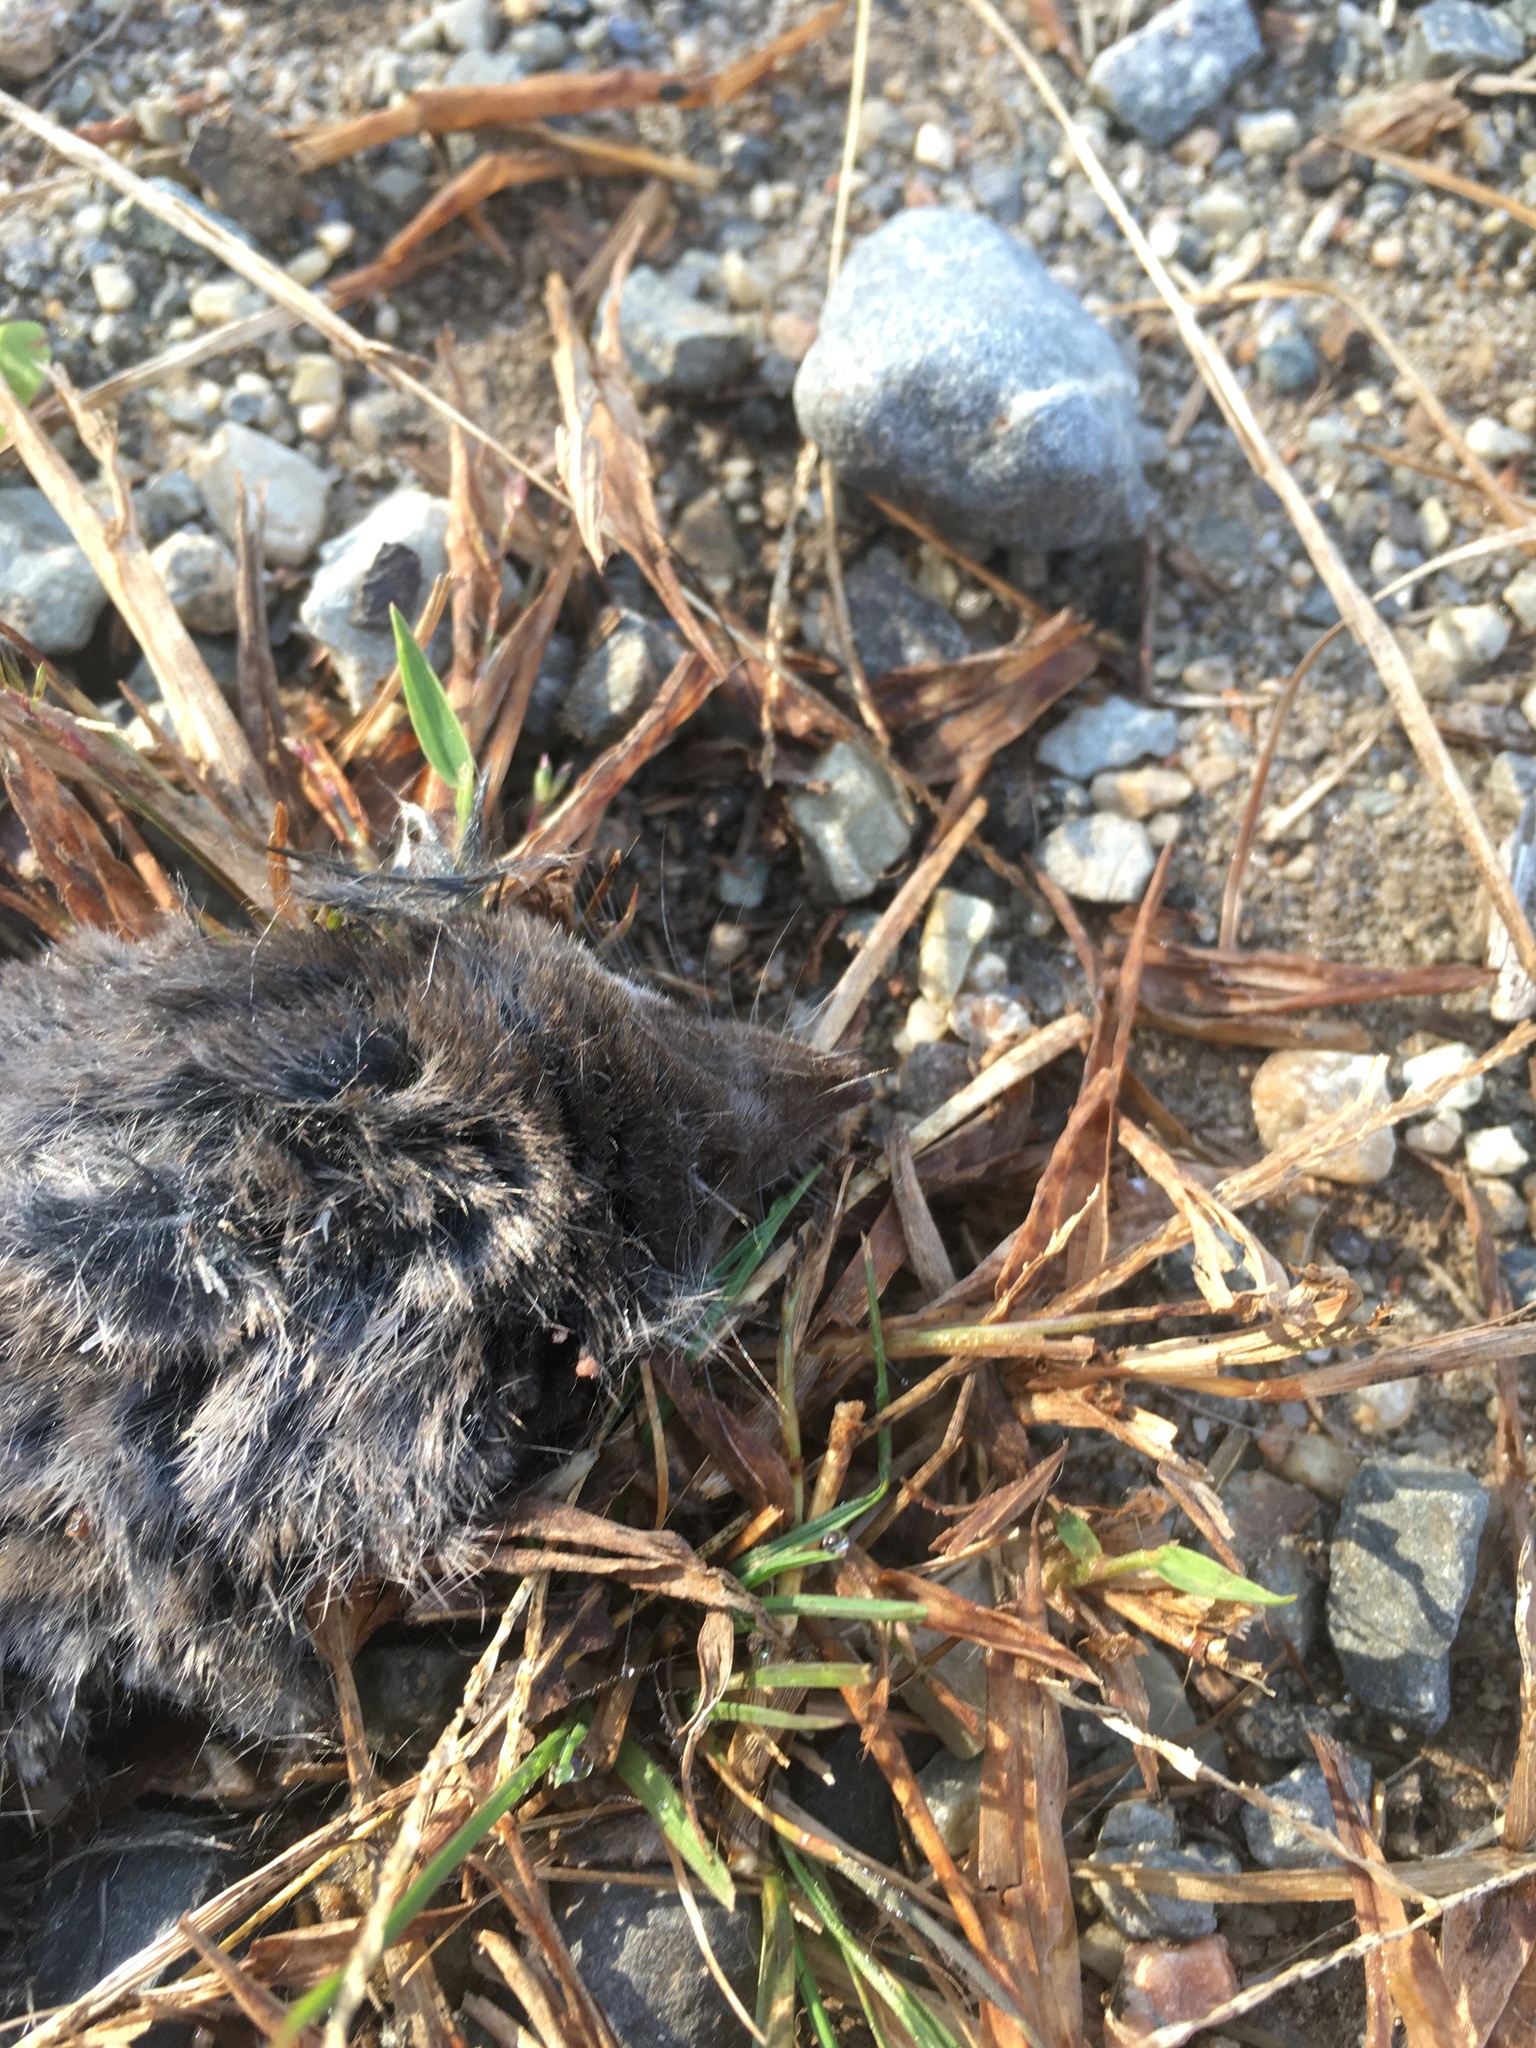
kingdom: Animalia
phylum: Chordata
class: Mammalia
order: Soricomorpha
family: Soricidae
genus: Blarina
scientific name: Blarina brevicauda
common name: Northern short-tailed shrew
